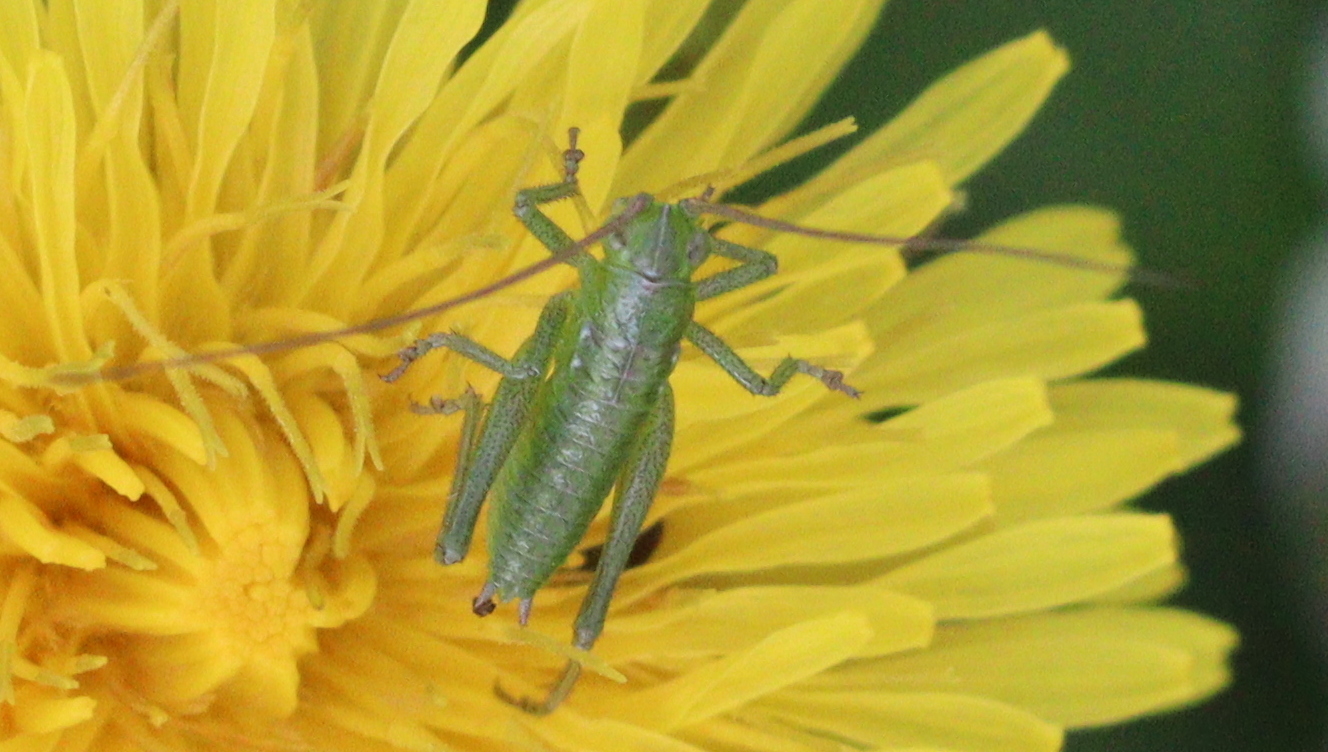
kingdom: Animalia
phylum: Arthropoda
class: Insecta
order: Orthoptera
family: Tettigoniidae
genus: Tettigonia
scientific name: Tettigonia viridissima
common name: Great green bush-cricket
